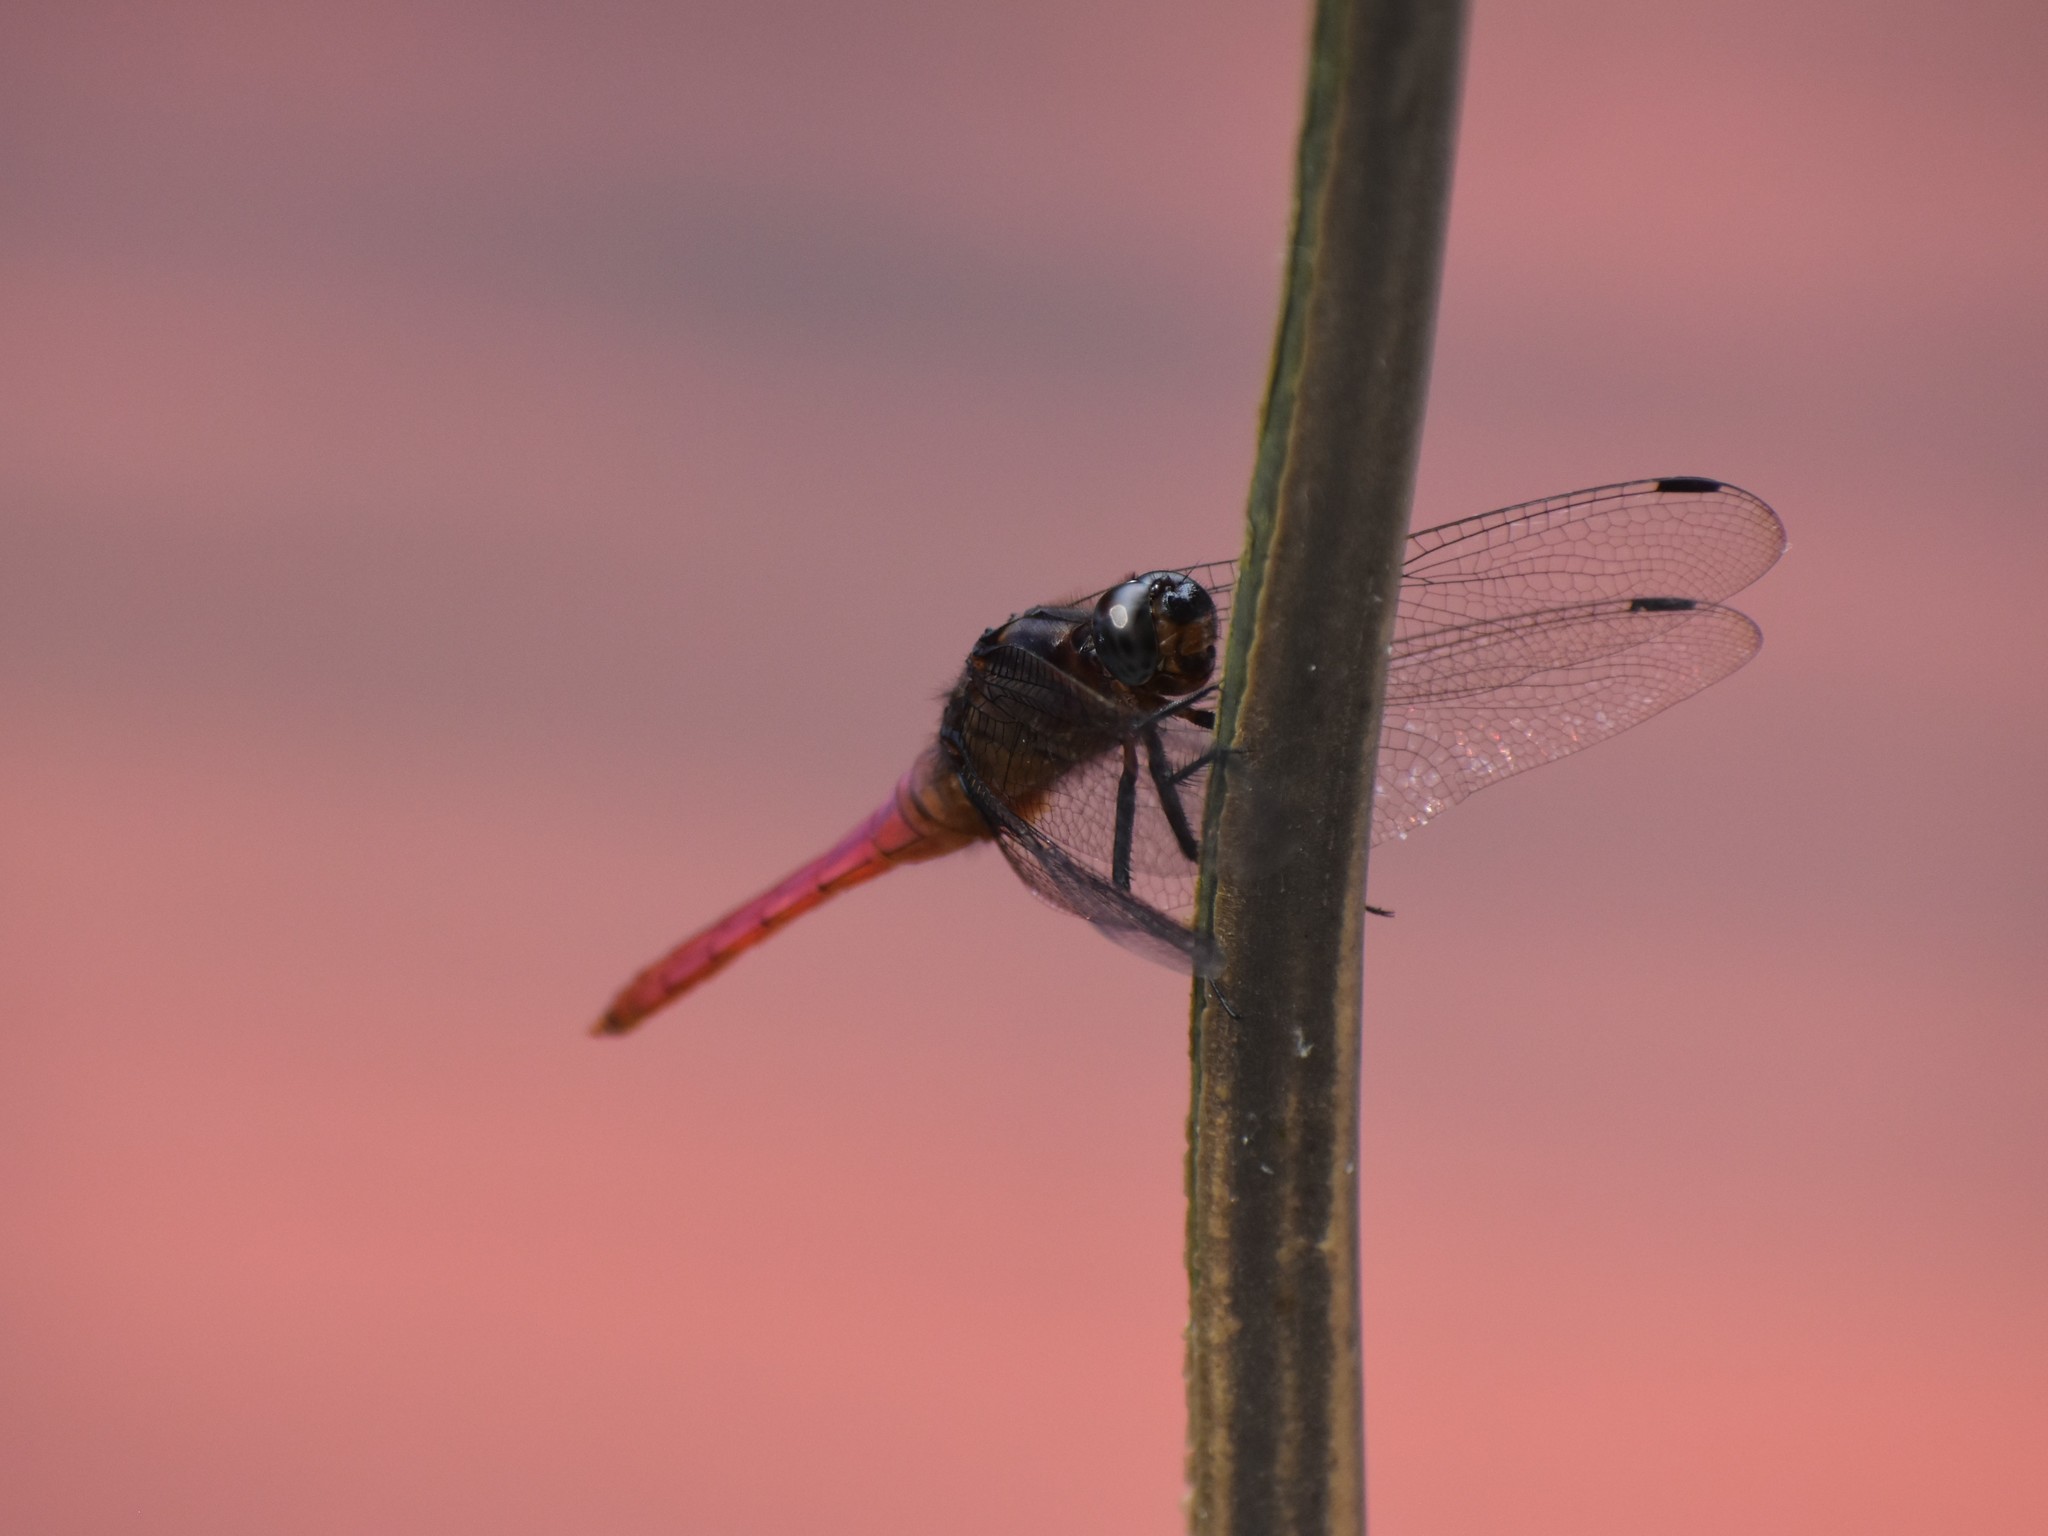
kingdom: Animalia
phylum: Arthropoda
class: Insecta
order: Odonata
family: Libellulidae
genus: Orthetrum
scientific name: Orthetrum pruinosum
